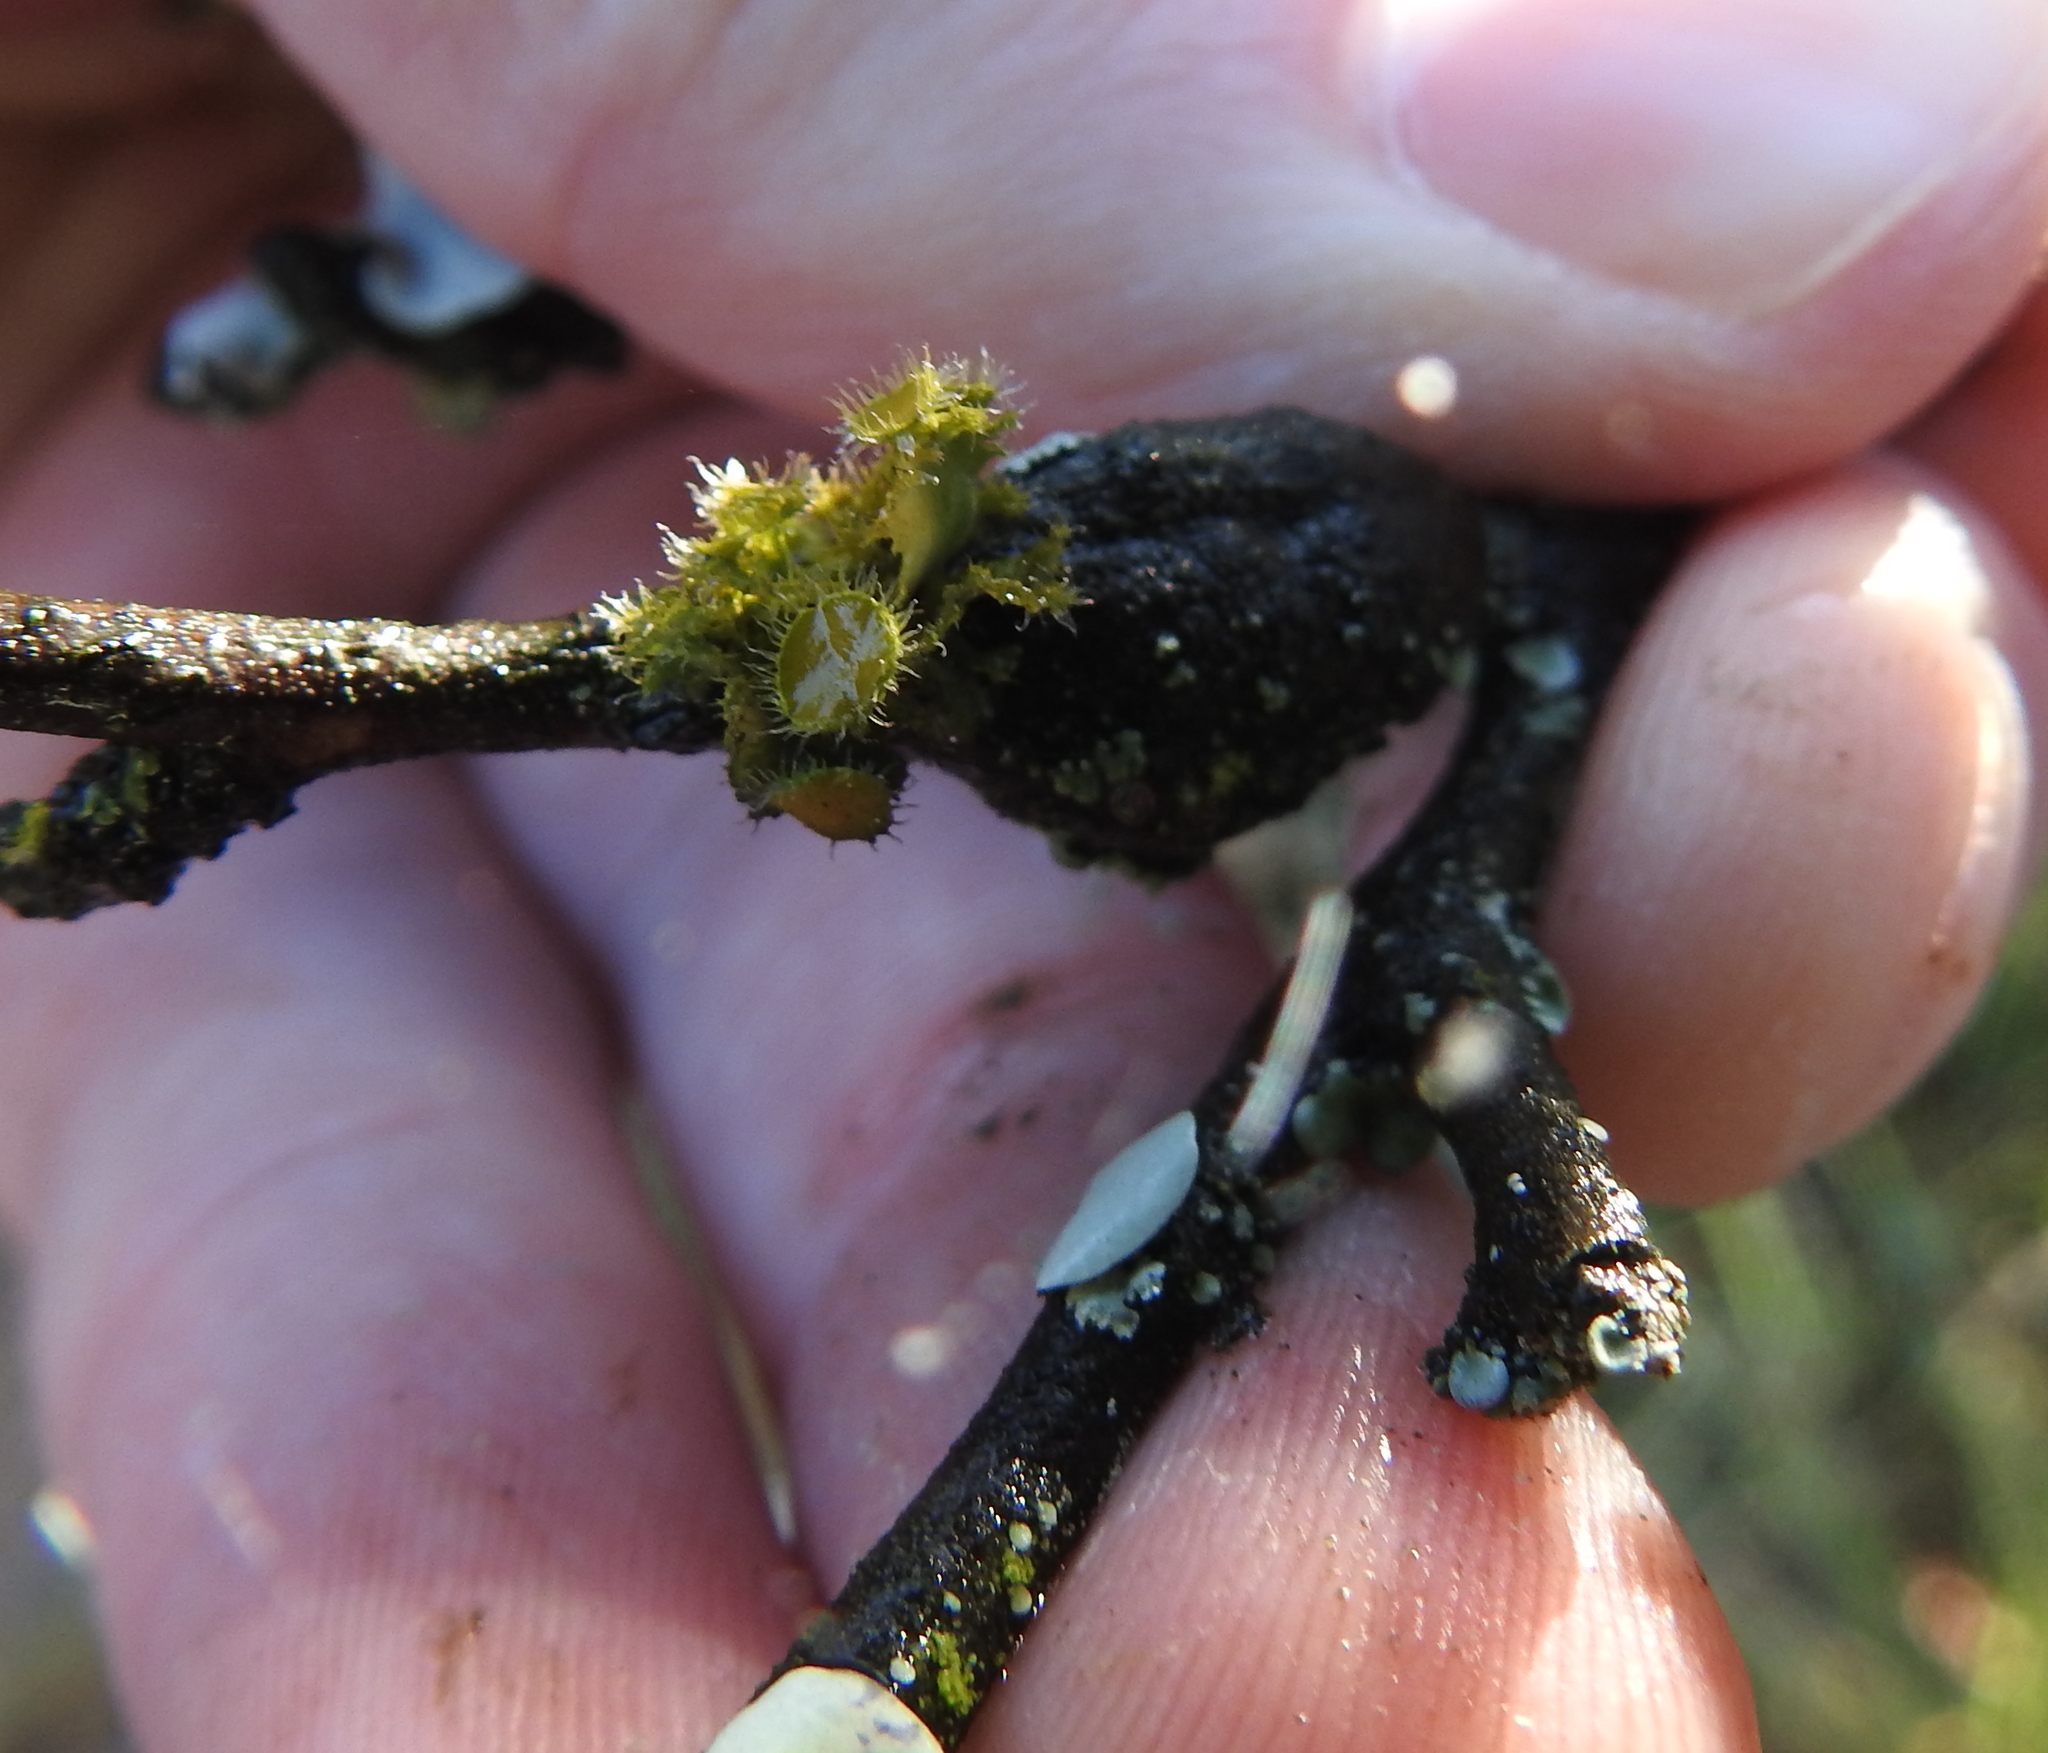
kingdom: Fungi
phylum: Ascomycota
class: Lecanoromycetes
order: Teloschistales
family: Teloschistaceae
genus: Niorma
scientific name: Niorma chrysophthalma
